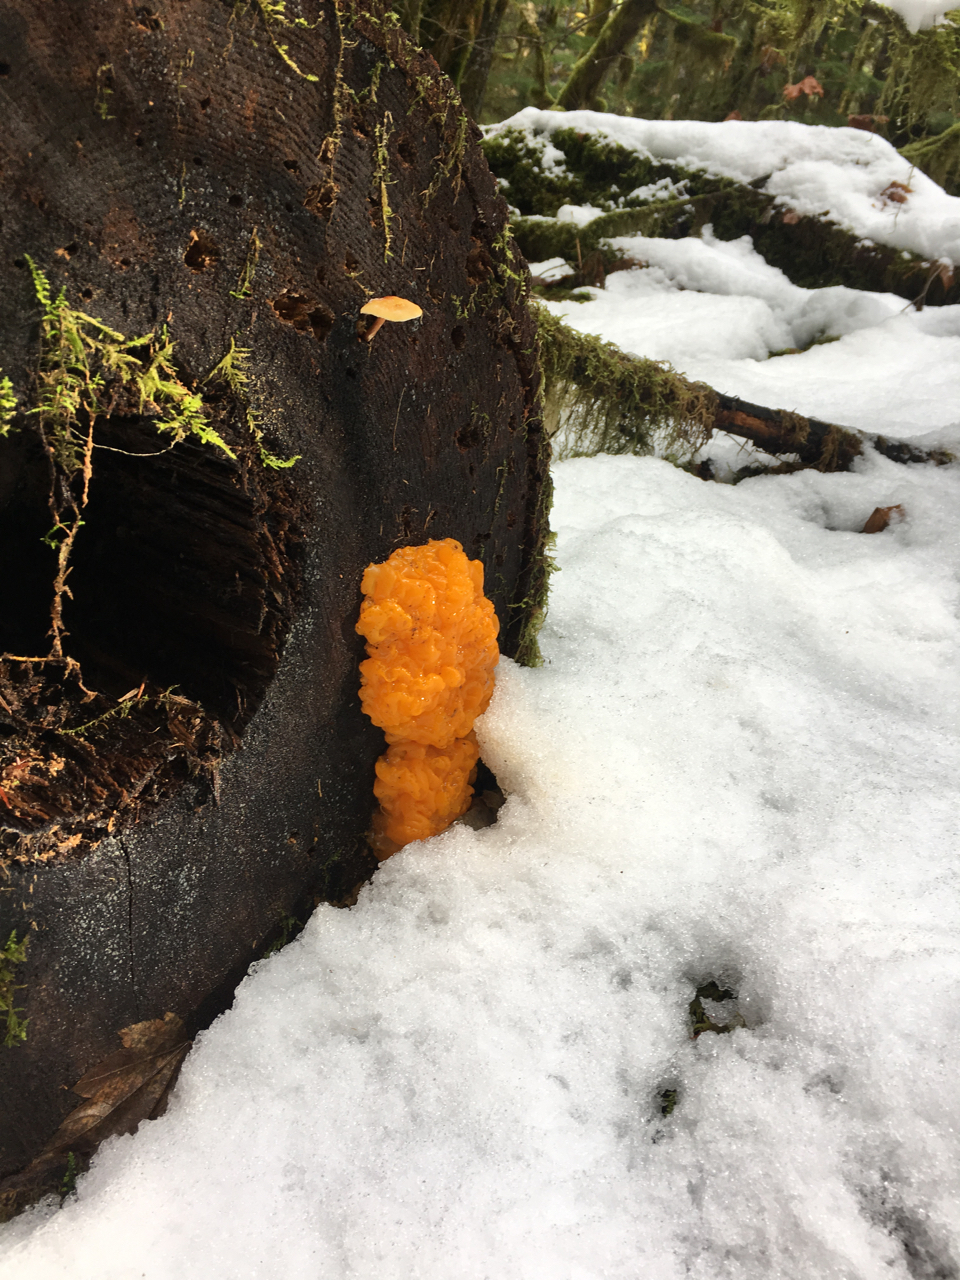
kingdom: Fungi
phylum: Basidiomycota
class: Dacrymycetes
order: Dacrymycetales
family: Dacrymycetaceae
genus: Dacrymyces
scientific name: Dacrymyces chrysospermus
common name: Orange jelly spot
